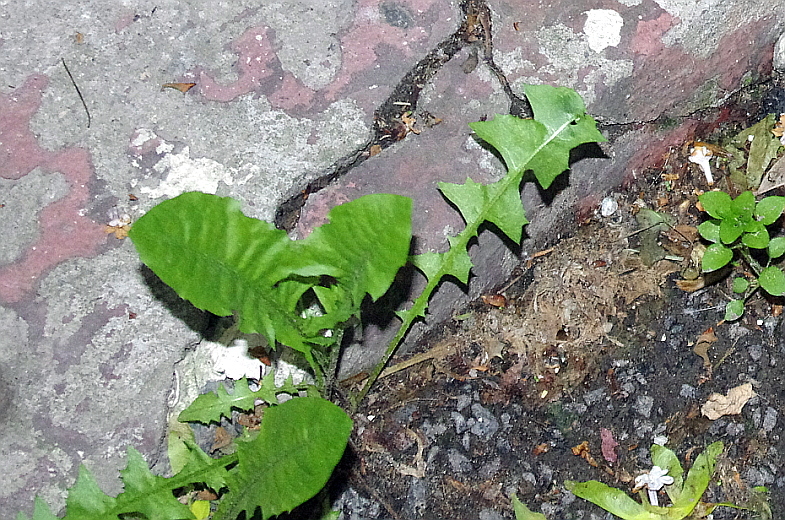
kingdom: Plantae
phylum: Tracheophyta
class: Magnoliopsida
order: Asterales
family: Asteraceae
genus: Taraxacum
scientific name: Taraxacum officinale
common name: Common dandelion
